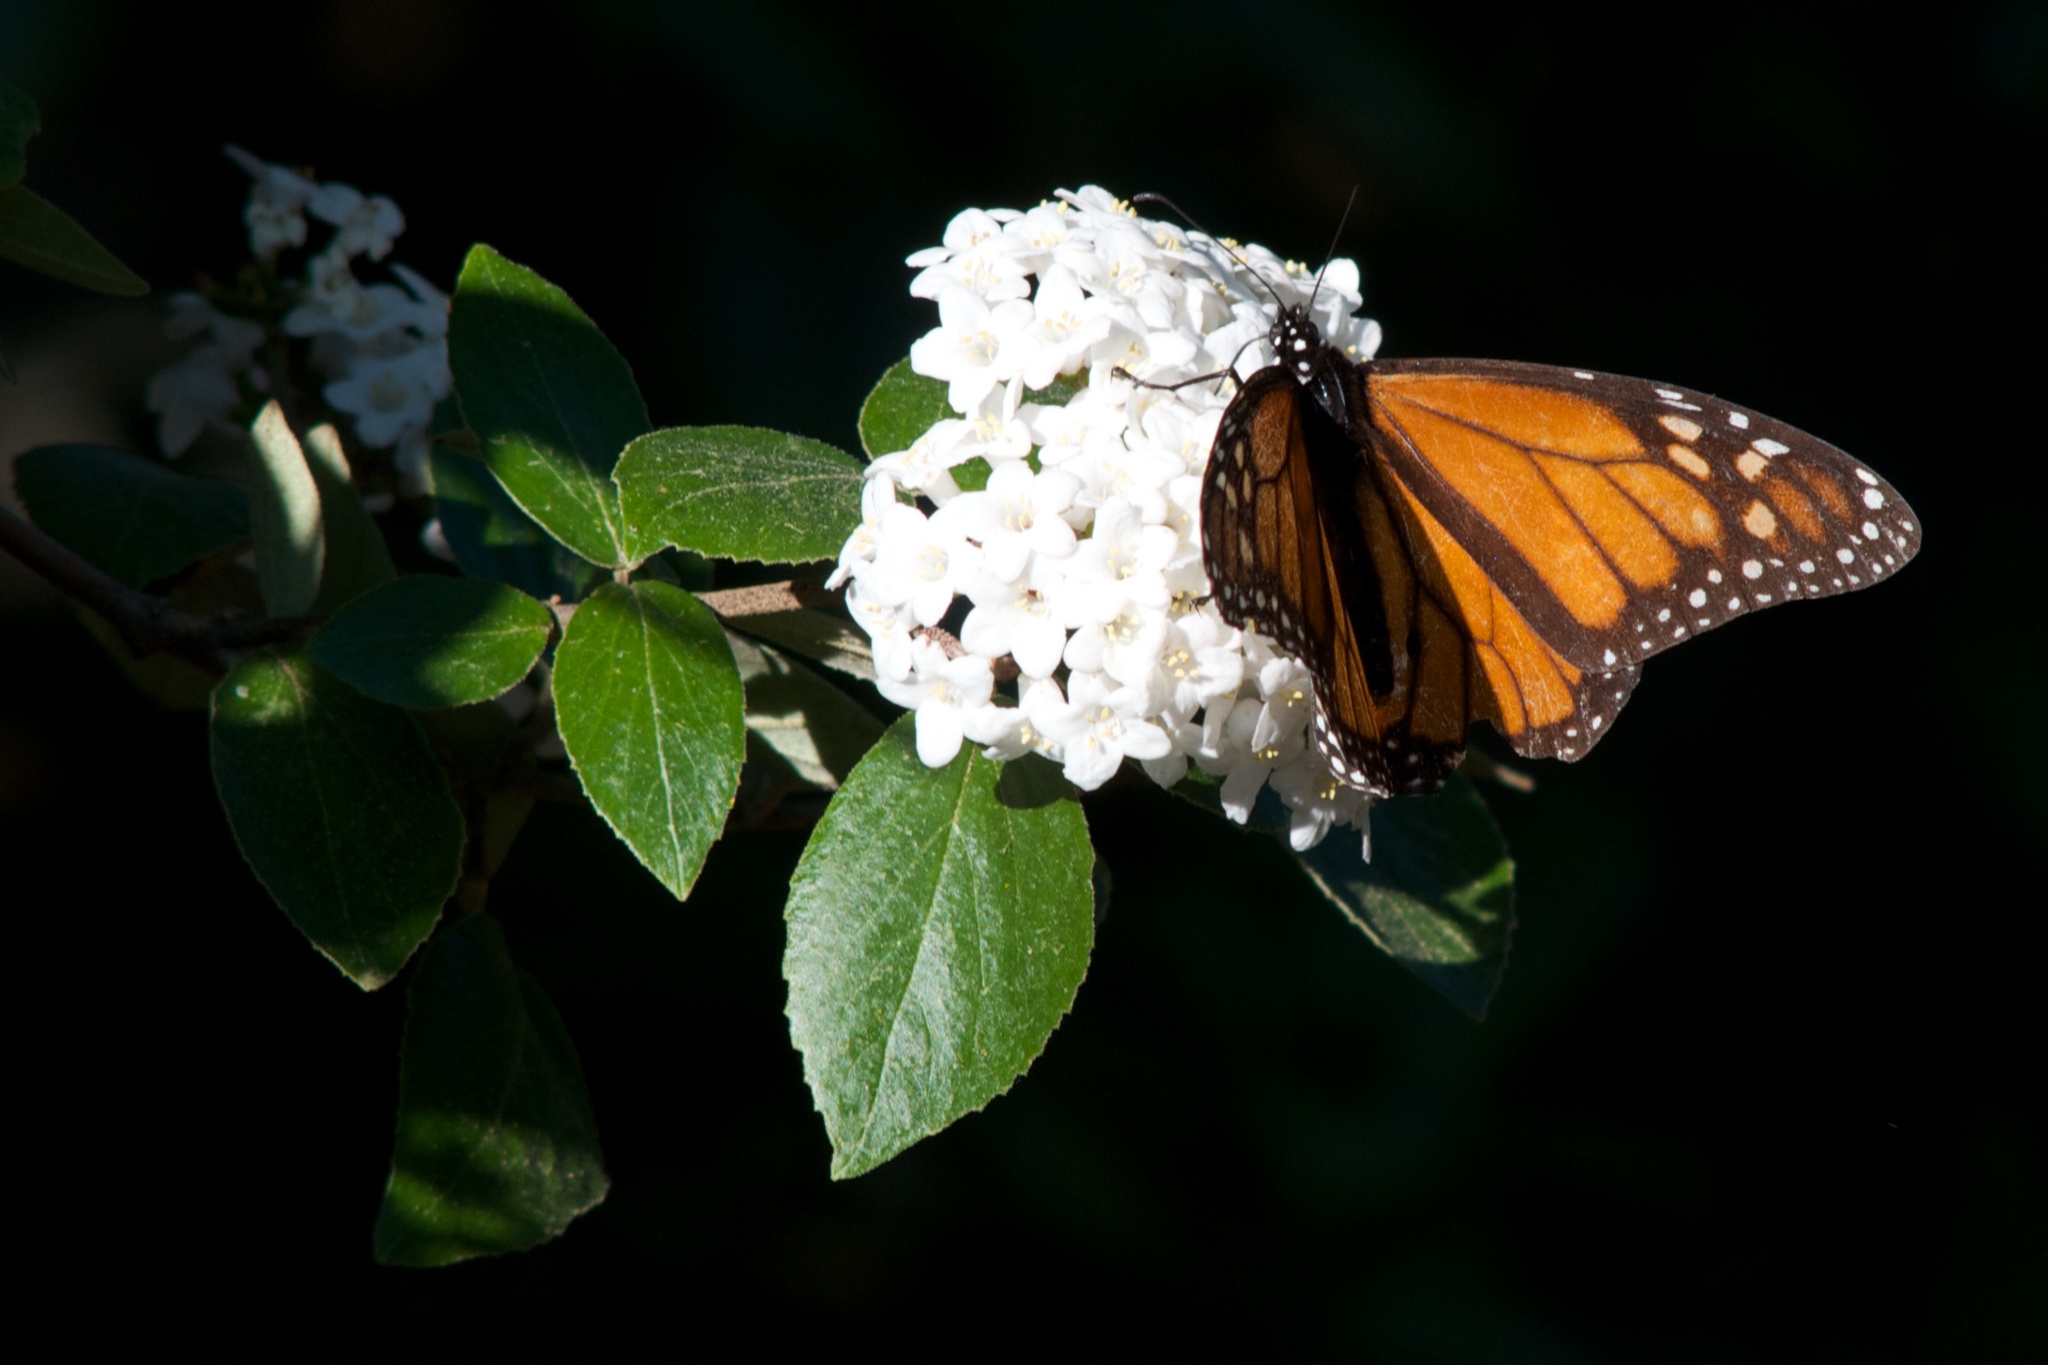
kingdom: Animalia
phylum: Arthropoda
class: Insecta
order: Lepidoptera
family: Nymphalidae
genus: Danaus
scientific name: Danaus plexippus
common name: Monarch
